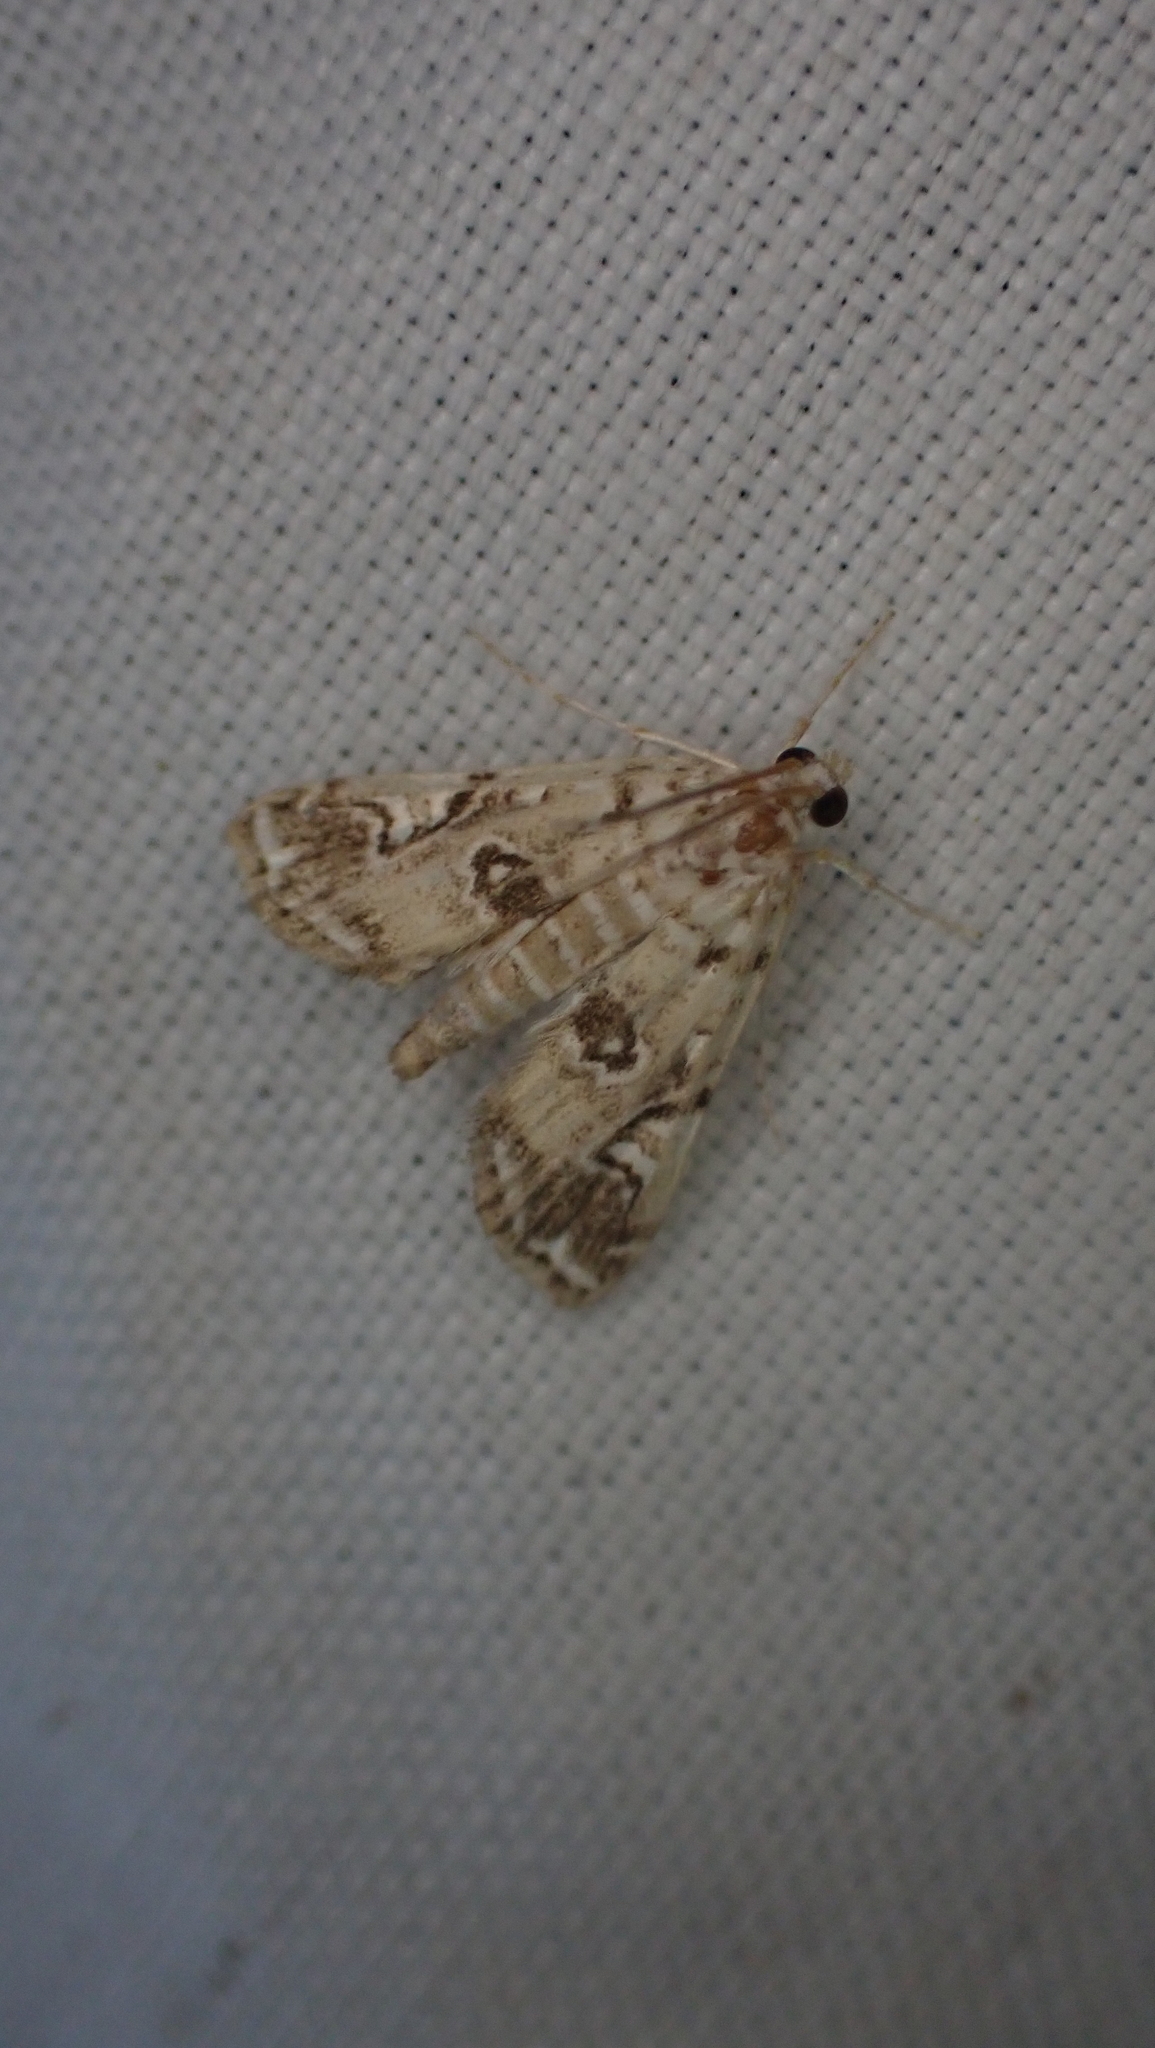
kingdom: Animalia
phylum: Arthropoda
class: Insecta
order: Lepidoptera
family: Crambidae
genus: Elophila
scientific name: Elophila gyralis
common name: Waterlily borer moth
